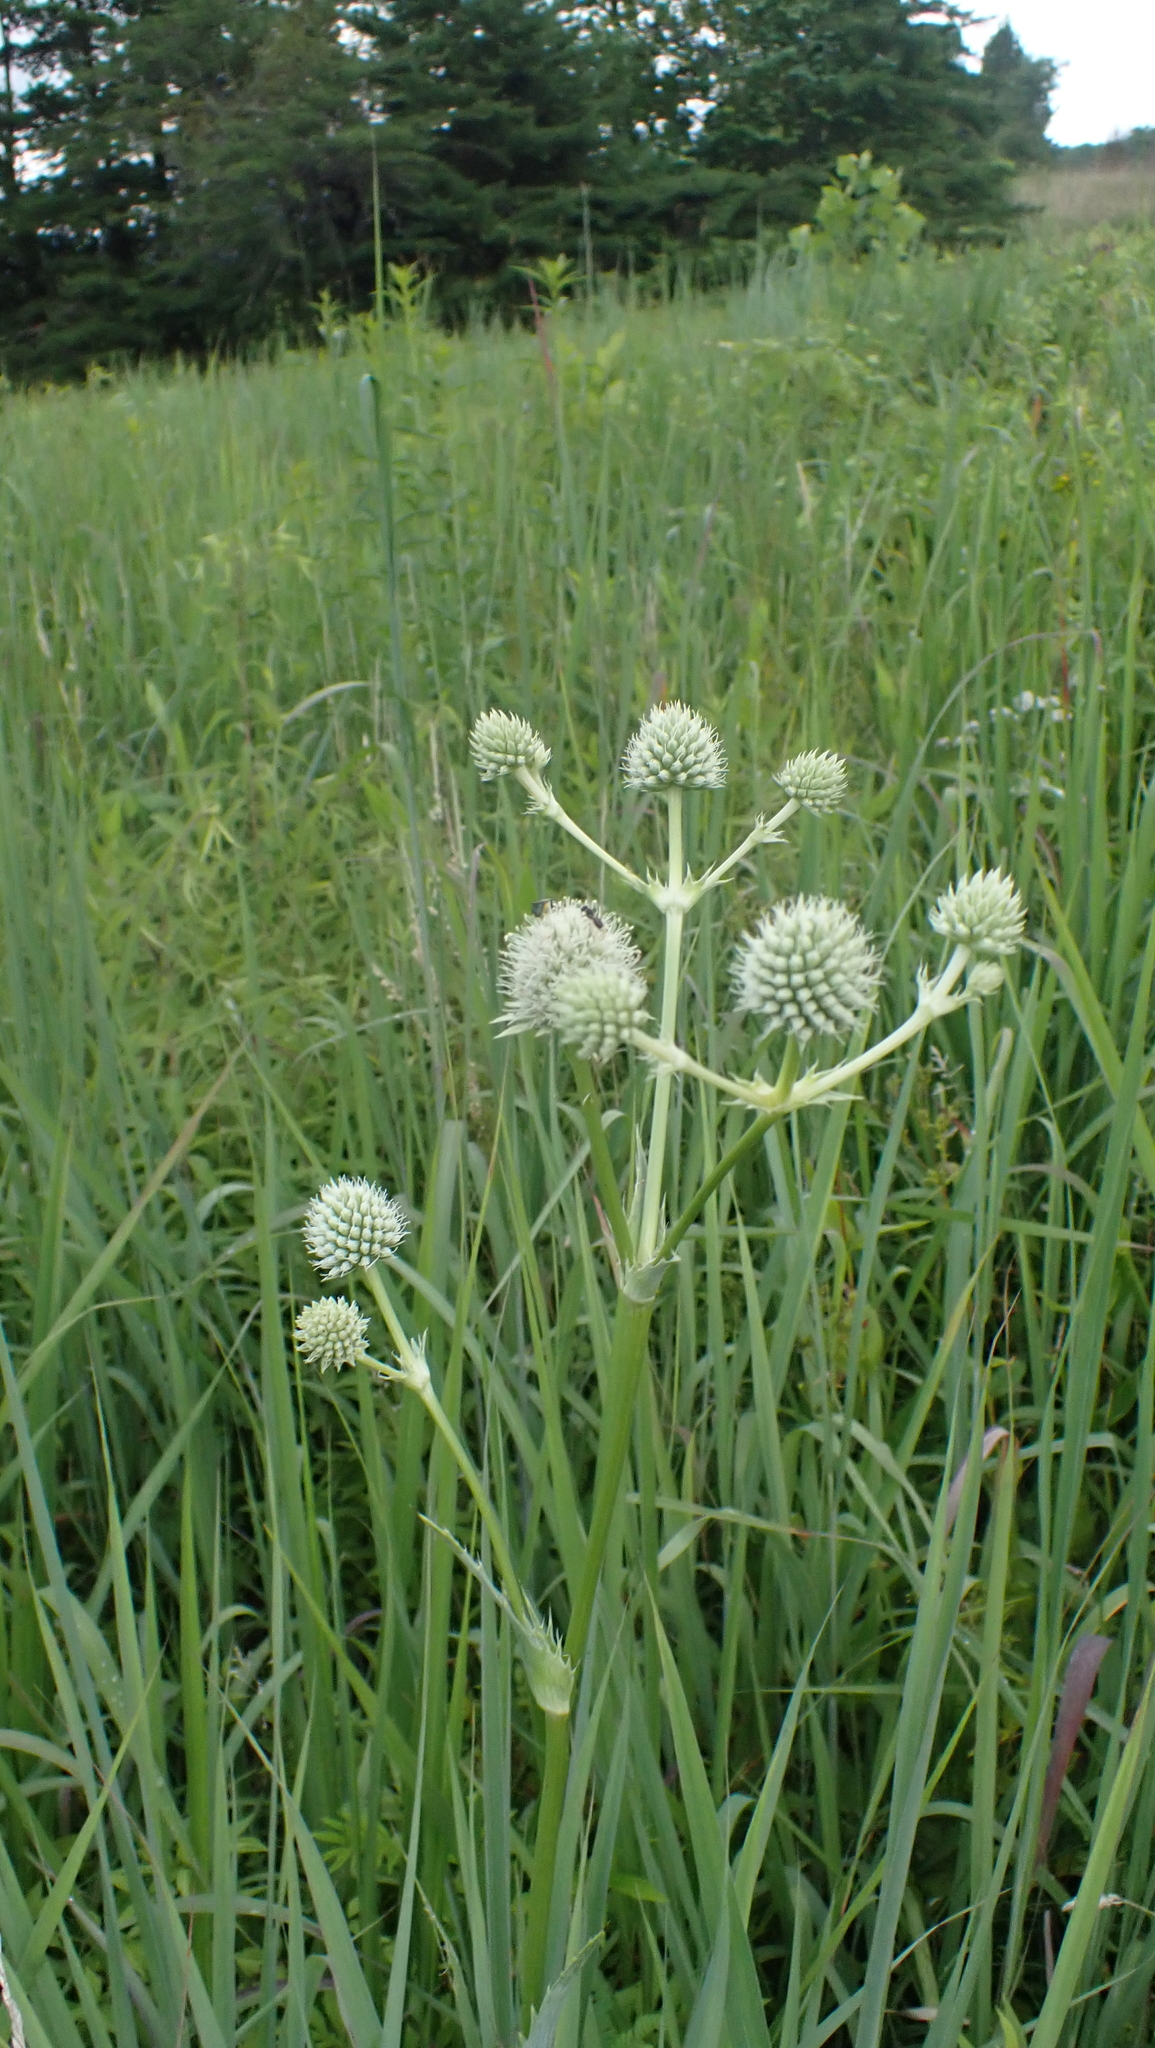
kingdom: Plantae
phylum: Tracheophyta
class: Magnoliopsida
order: Apiales
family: Apiaceae
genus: Eryngium
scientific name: Eryngium yuccifolium
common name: Button eryngo
